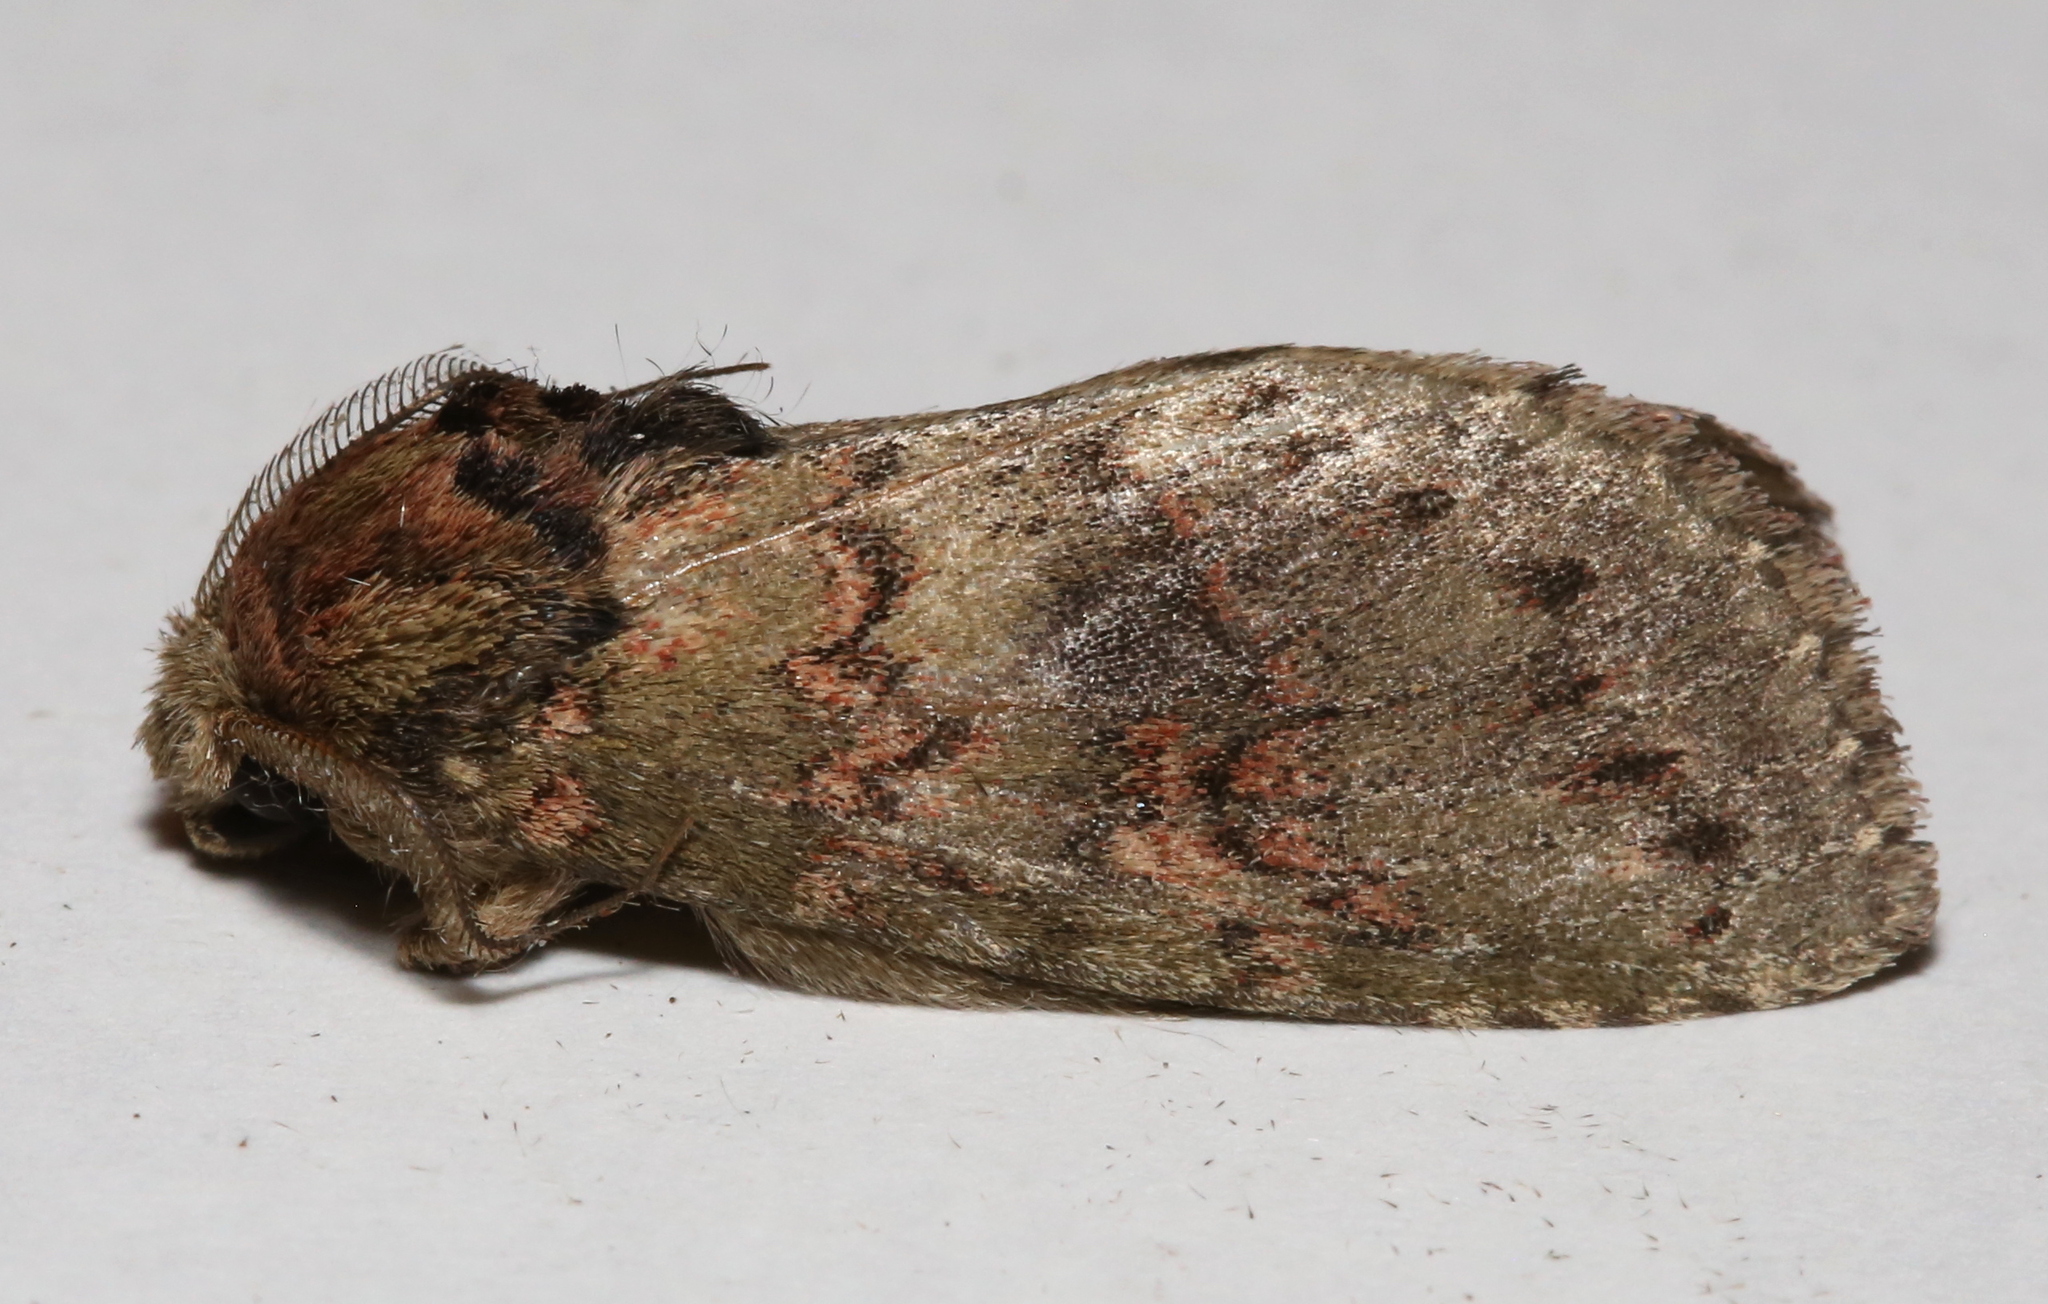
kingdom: Animalia
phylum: Arthropoda
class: Insecta
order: Lepidoptera
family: Notodontidae
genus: Disphragis
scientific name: Disphragis Cecrita biundata
